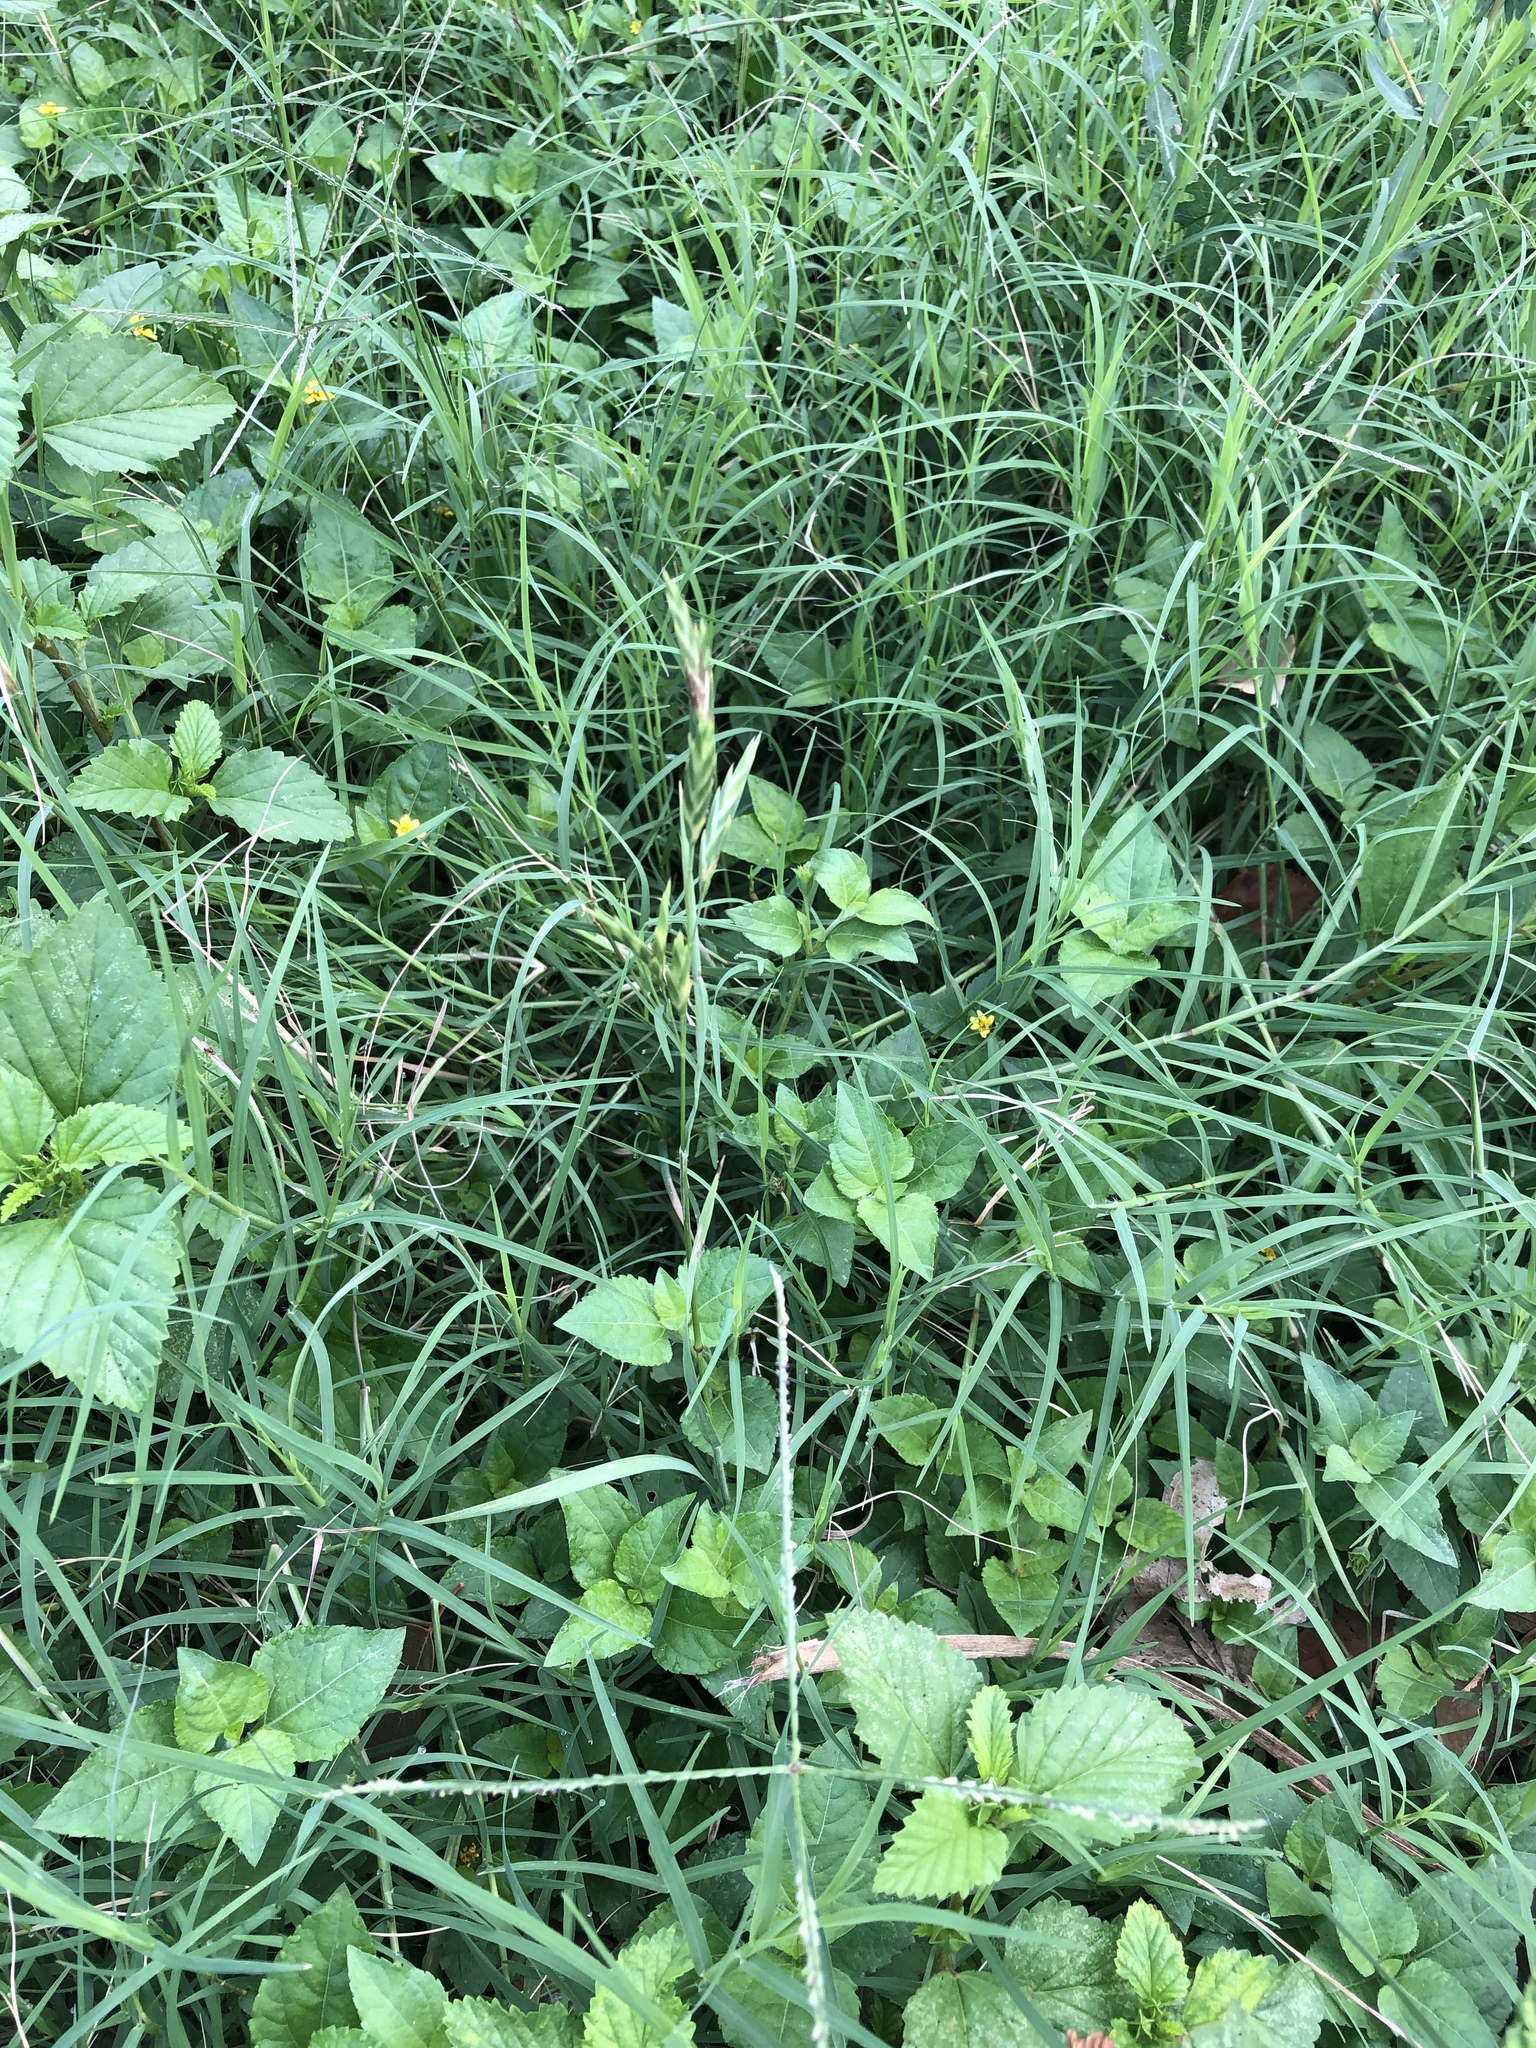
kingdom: Plantae
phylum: Tracheophyta
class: Liliopsida
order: Poales
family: Poaceae
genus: Bromus
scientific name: Bromus catharticus
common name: Rescuegrass
